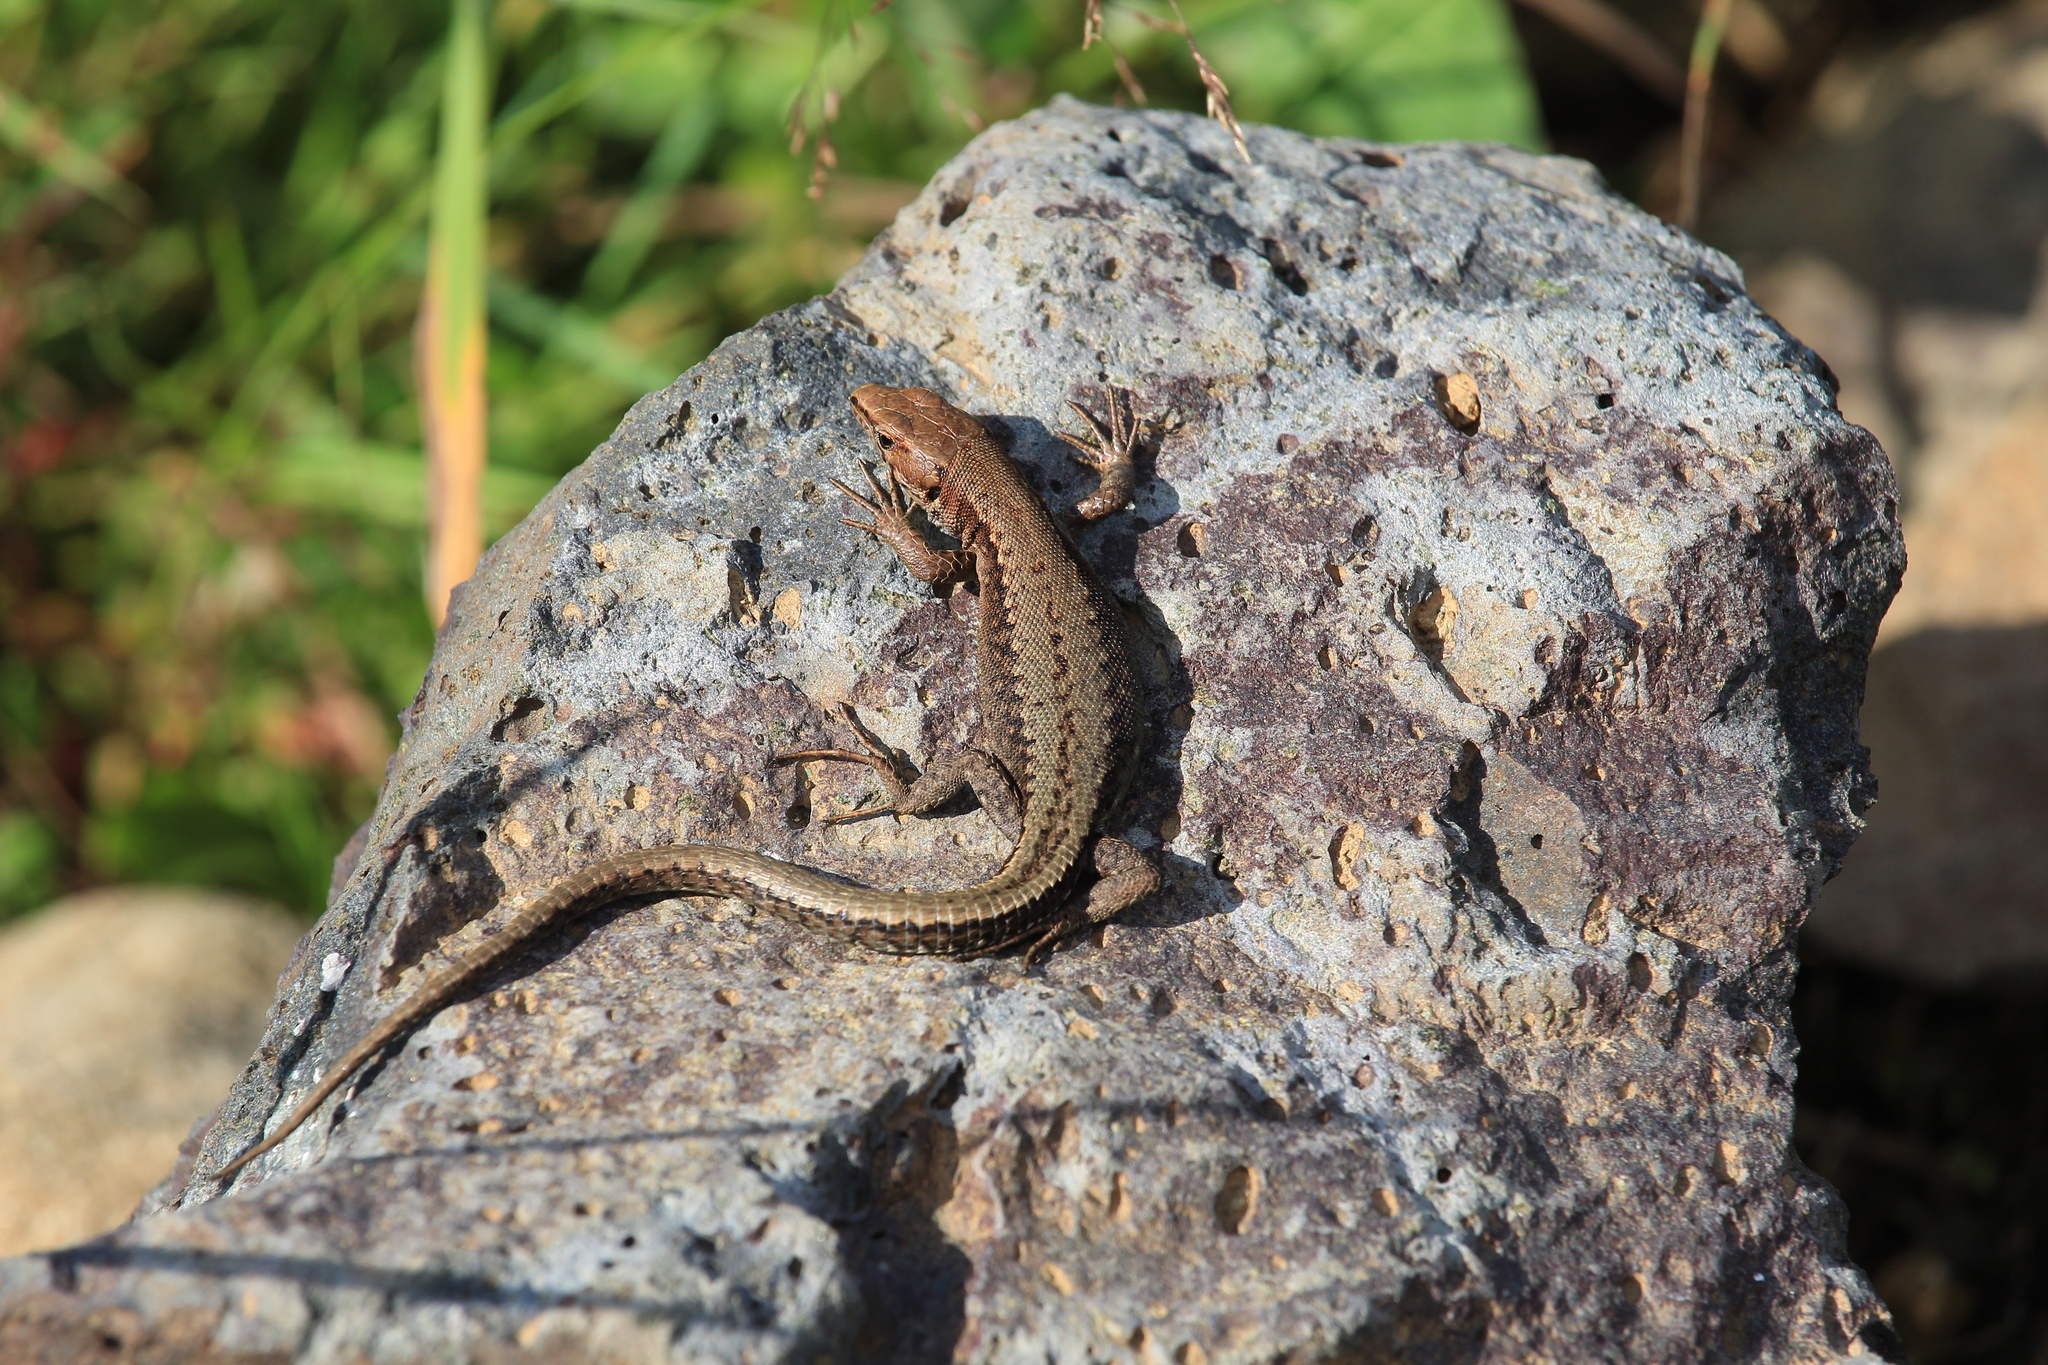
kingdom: Animalia
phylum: Chordata
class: Squamata
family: Lacertidae
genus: Darevskia
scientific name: Darevskia derjugini
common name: Derjugin's lizard
